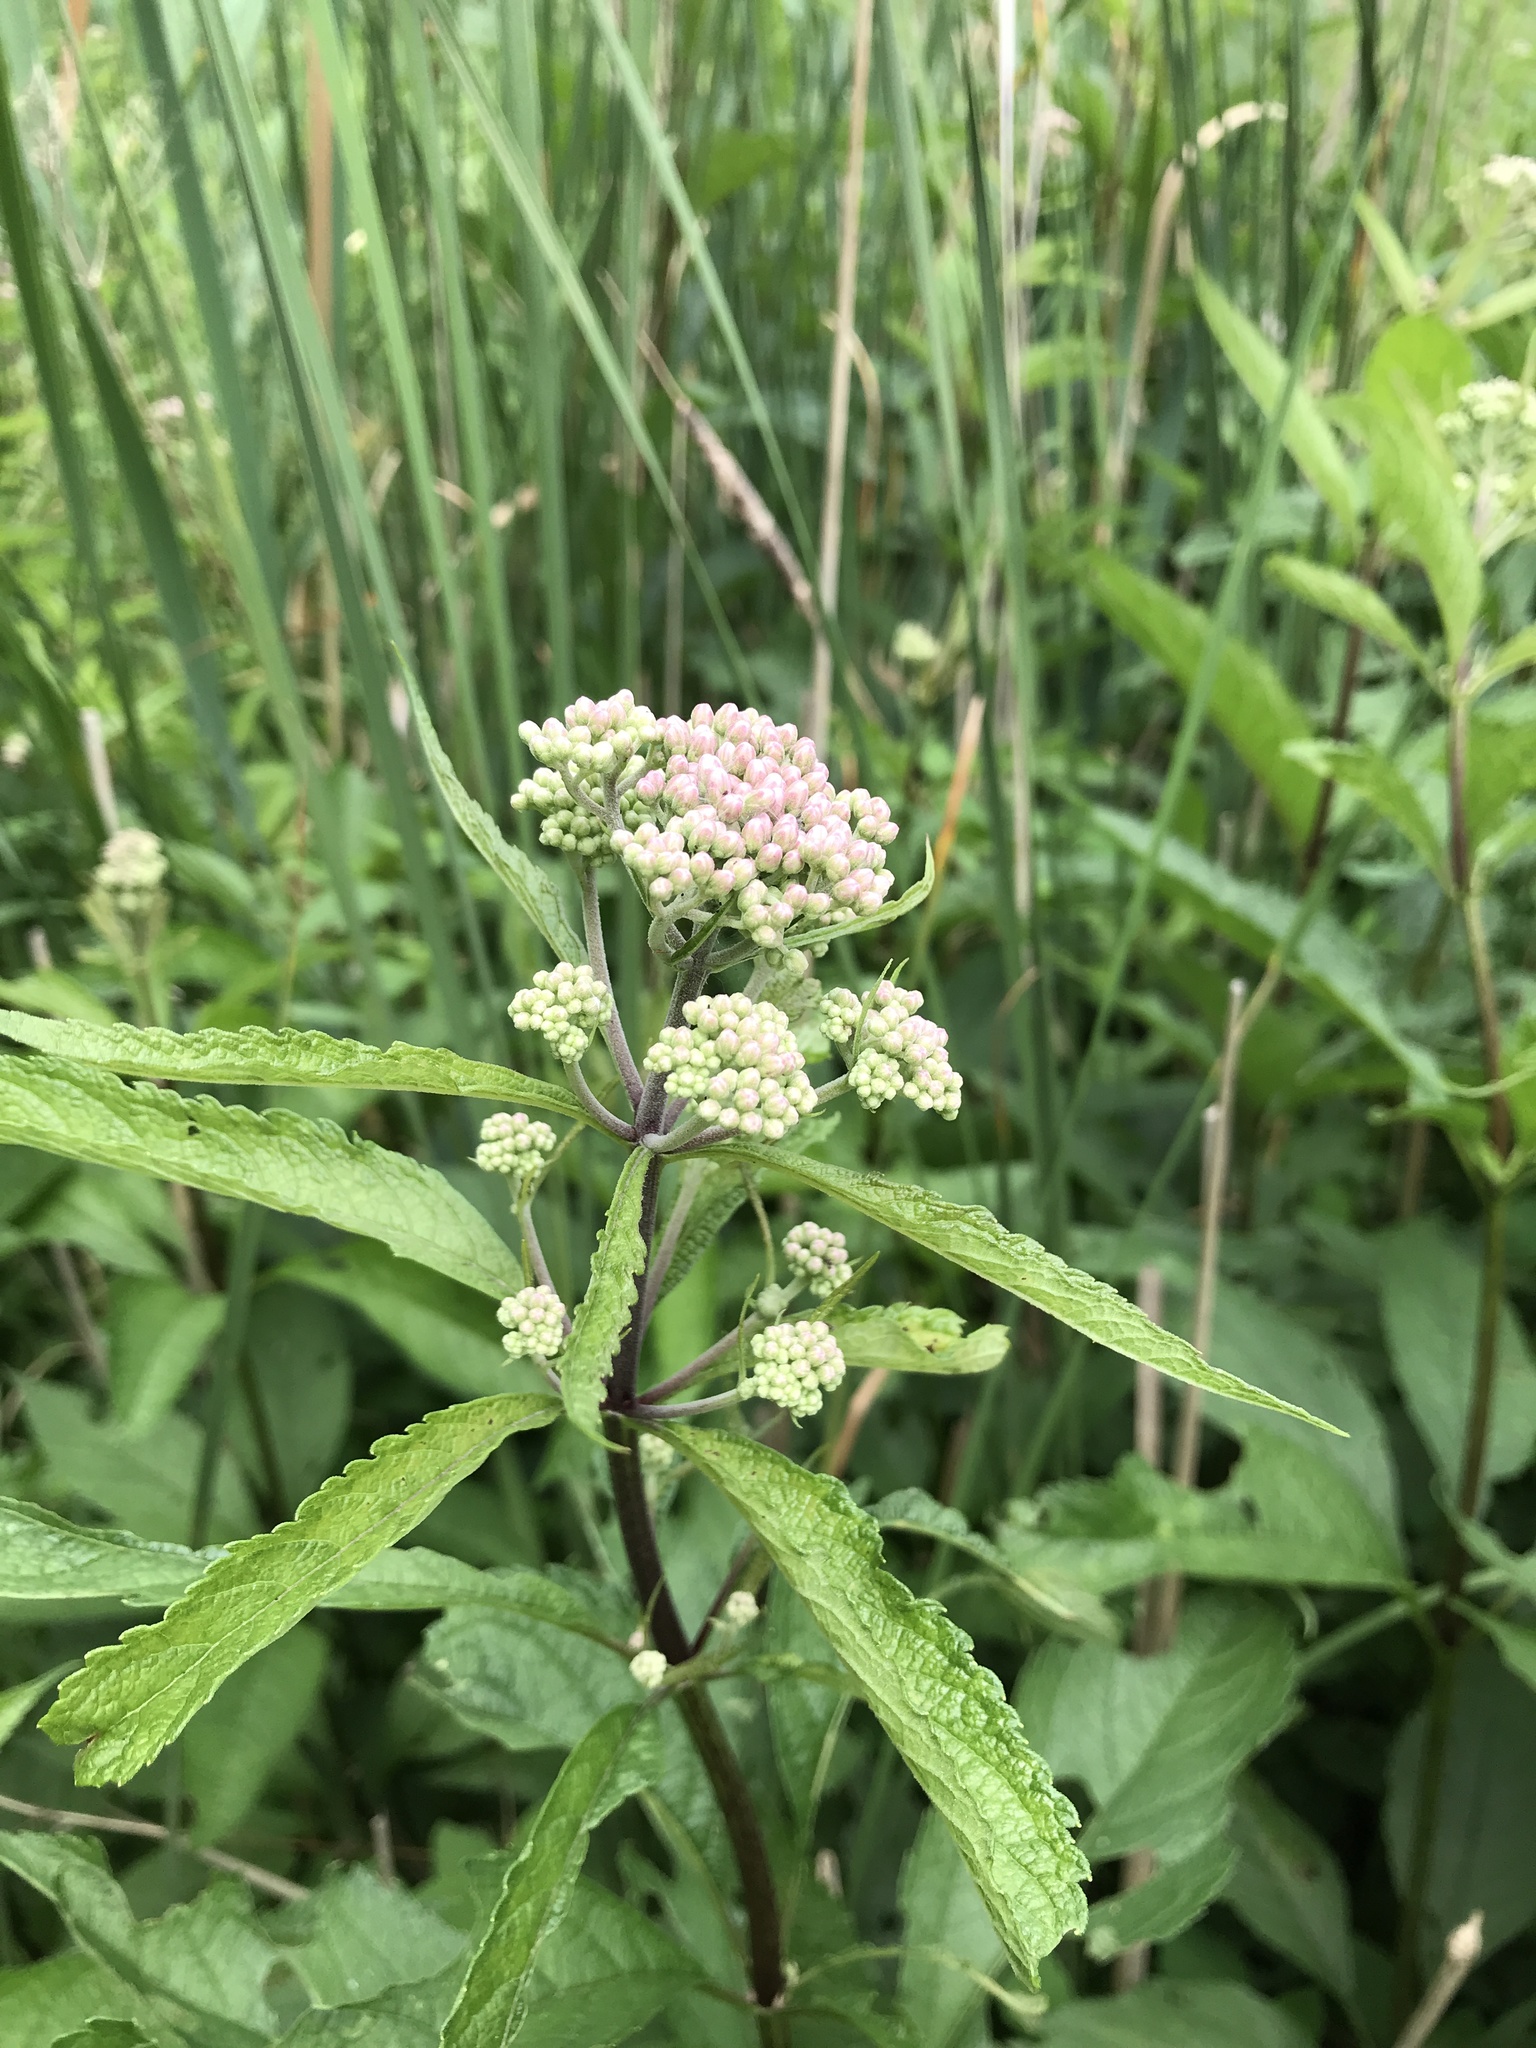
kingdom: Plantae
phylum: Tracheophyta
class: Magnoliopsida
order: Asterales
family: Asteraceae
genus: Eutrochium
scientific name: Eutrochium maculatum
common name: Spotted joe pye weed
